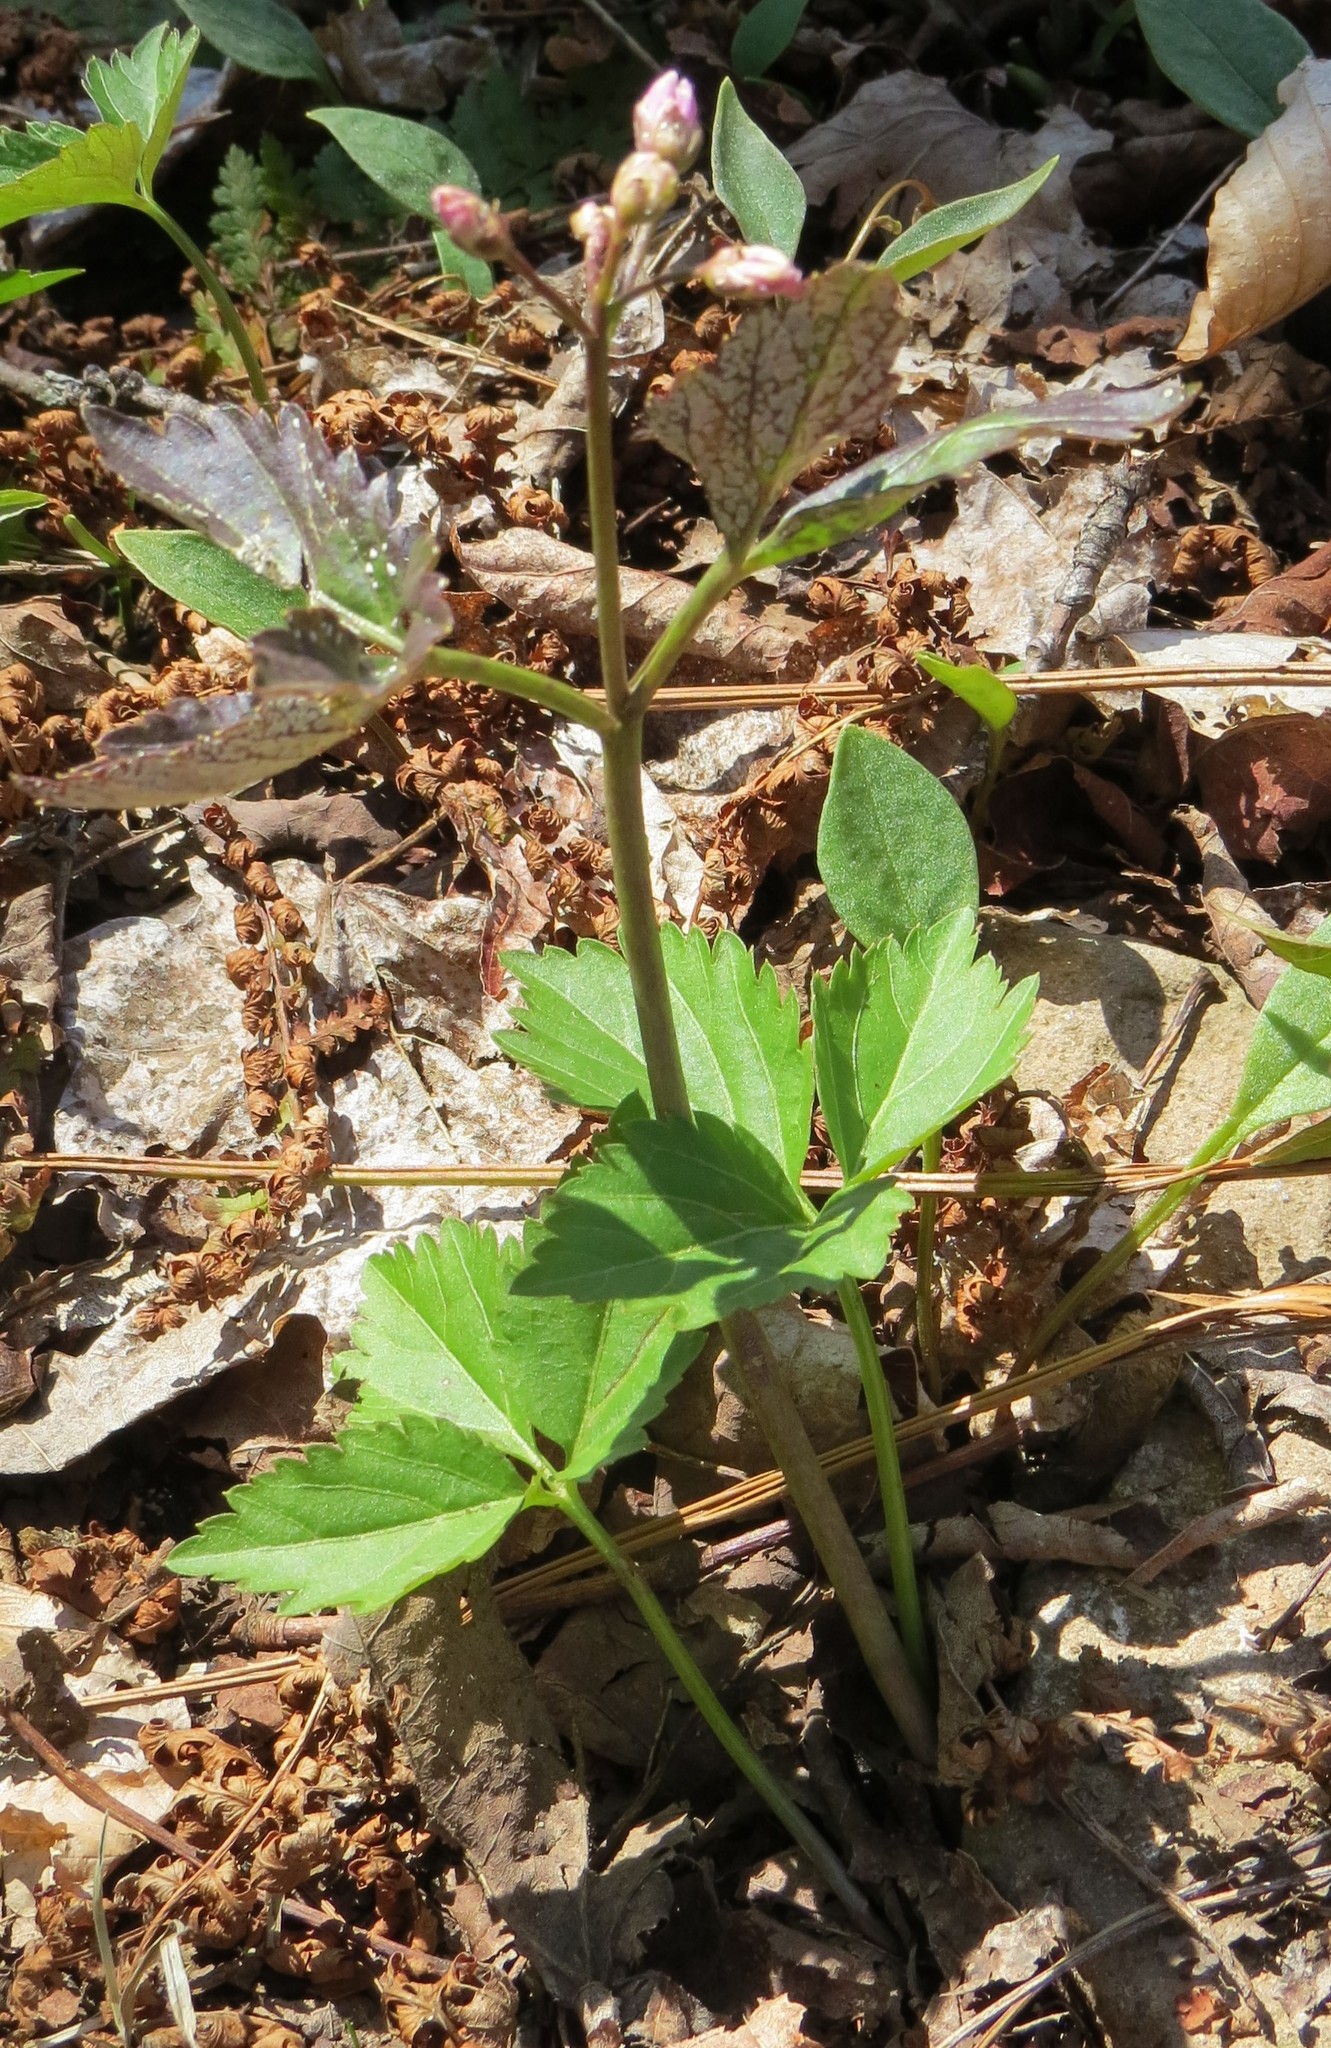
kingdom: Plantae
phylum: Tracheophyta
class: Magnoliopsida
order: Brassicales
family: Brassicaceae
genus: Cardamine
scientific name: Cardamine diphylla
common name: Broad-leaved toothwort
